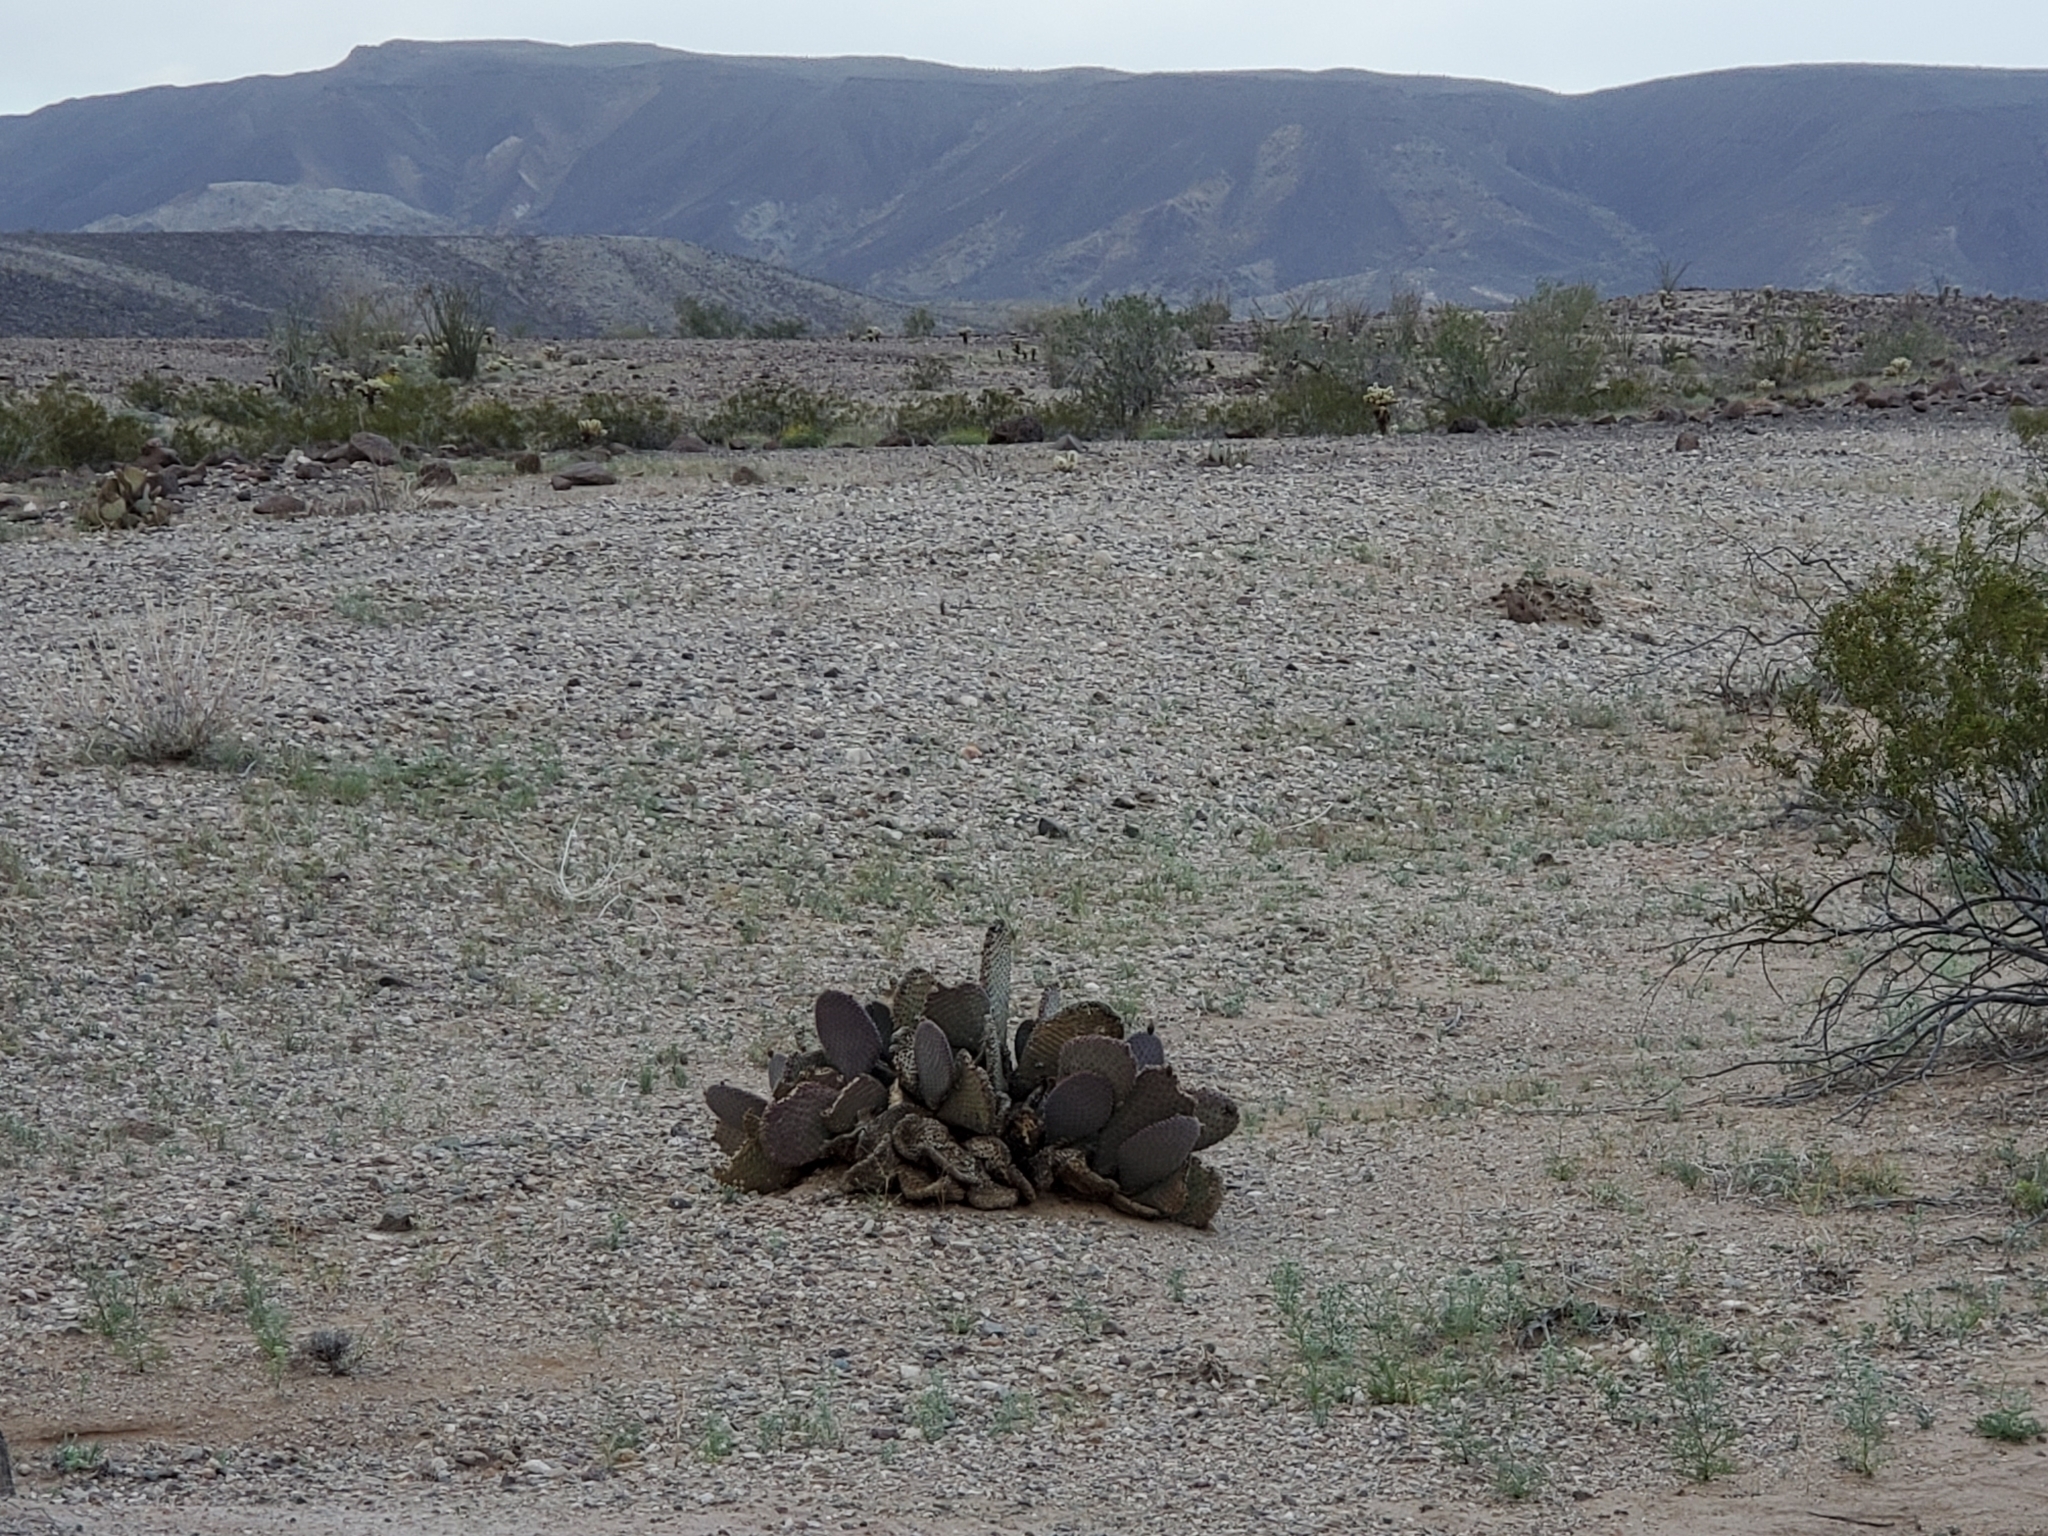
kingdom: Plantae
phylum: Tracheophyta
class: Magnoliopsida
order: Caryophyllales
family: Cactaceae
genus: Opuntia
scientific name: Opuntia basilaris
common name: Beavertail prickly-pear
